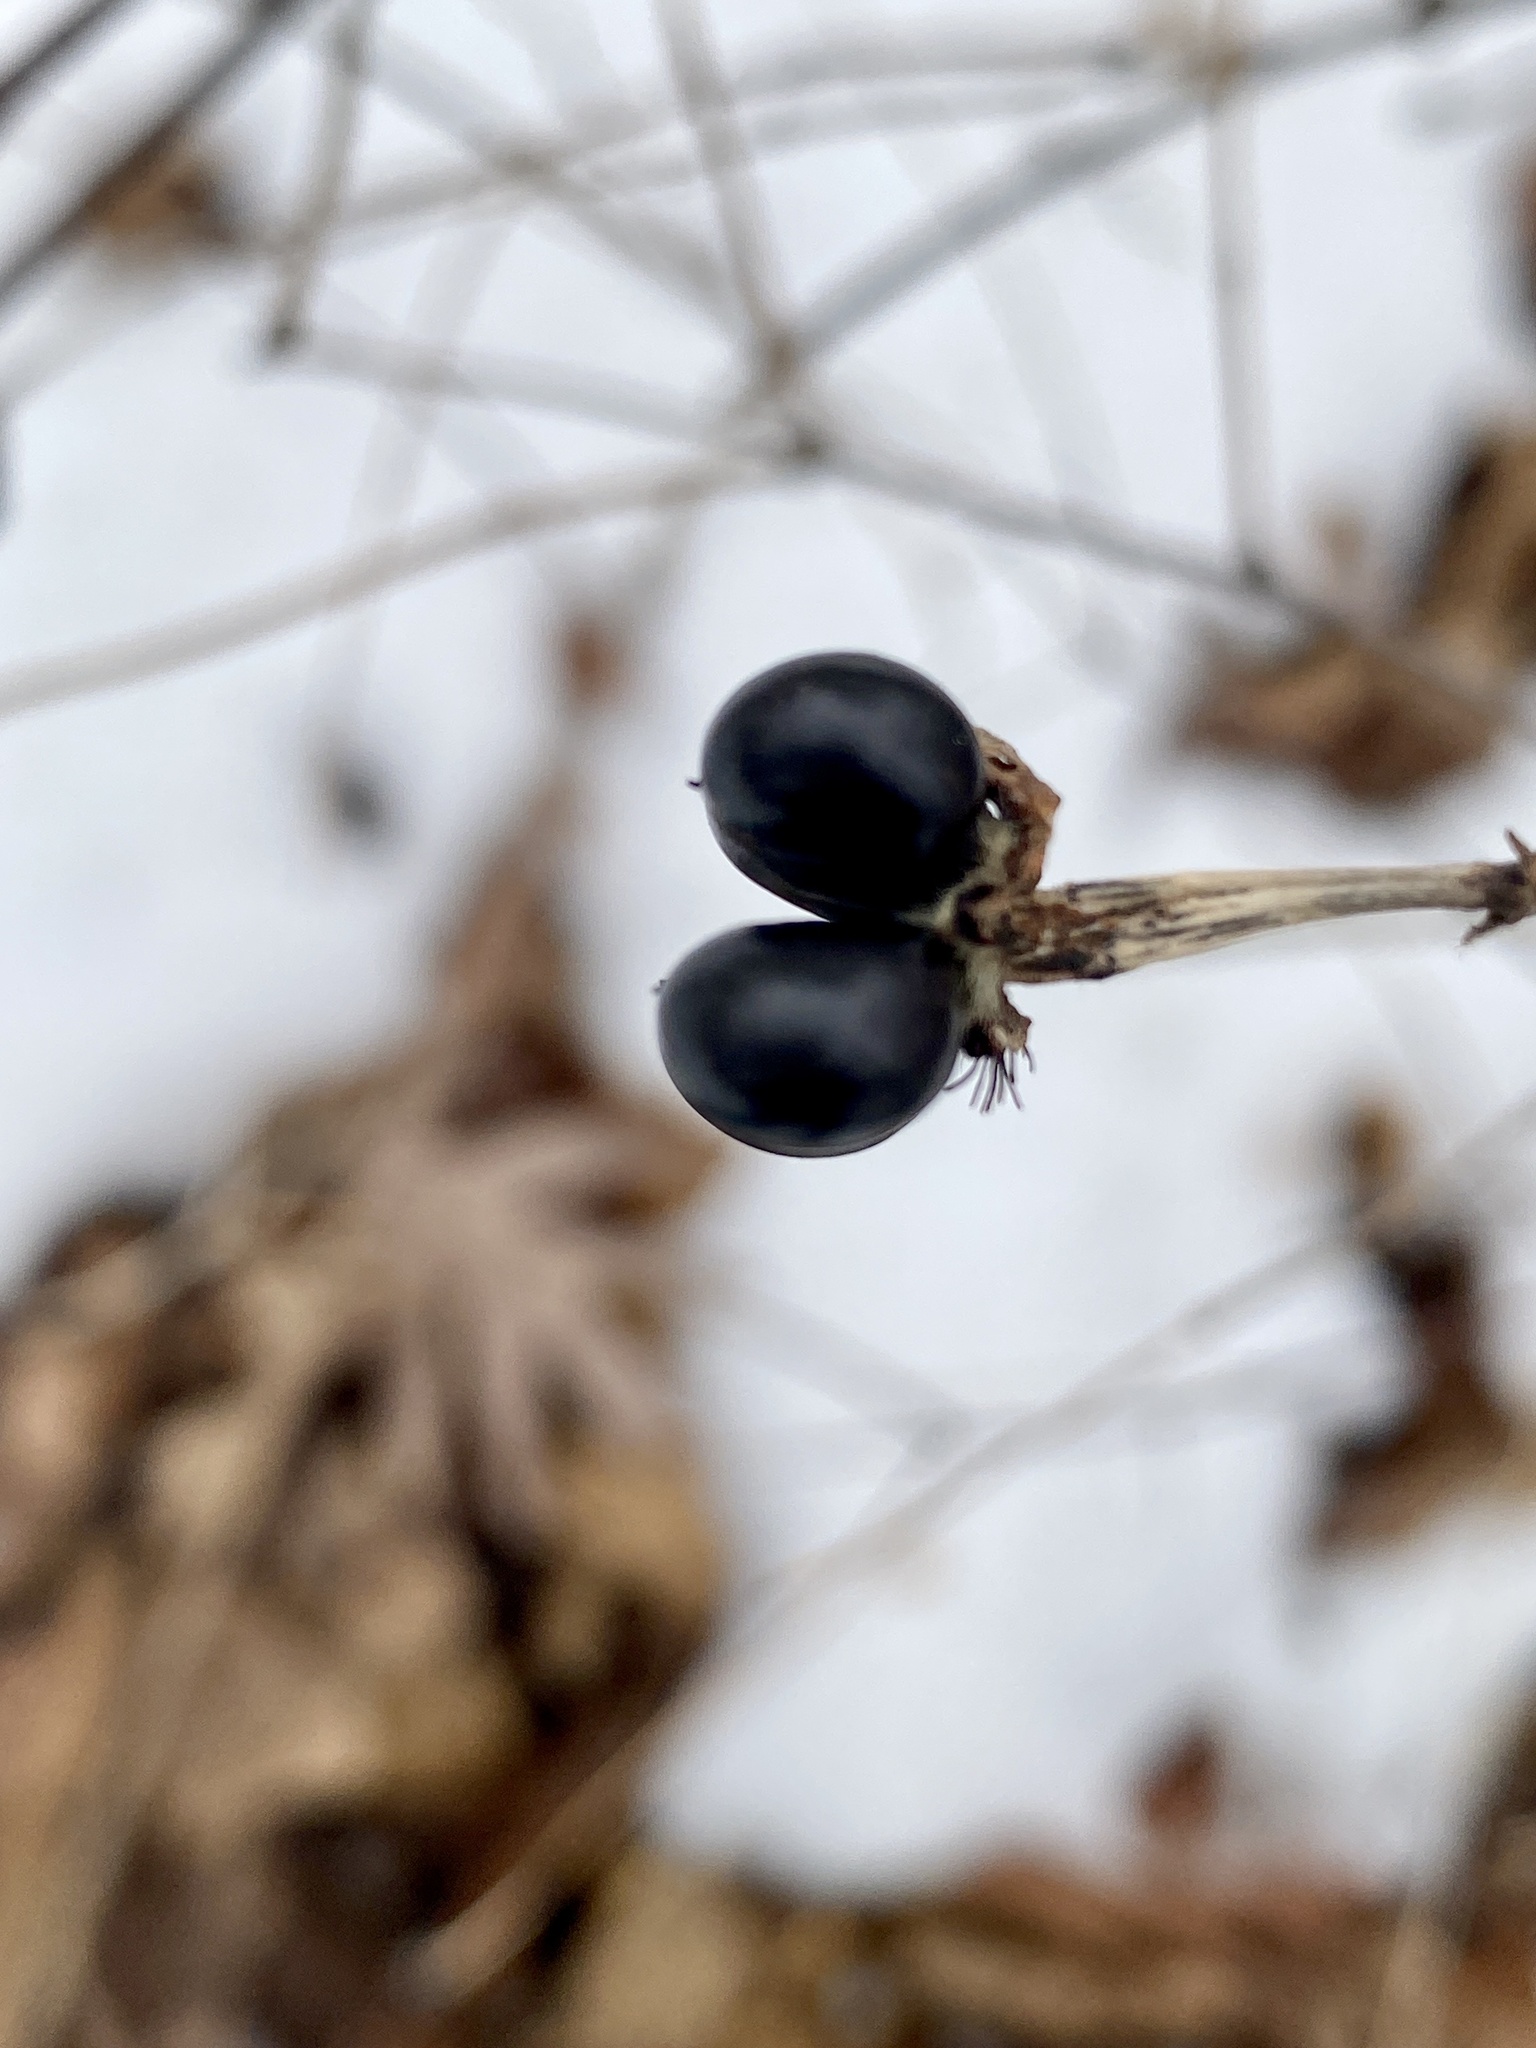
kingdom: Plantae
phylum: Tracheophyta
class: Magnoliopsida
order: Rosales
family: Rosaceae
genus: Rhodotypos
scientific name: Rhodotypos scandens
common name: Jetbead
